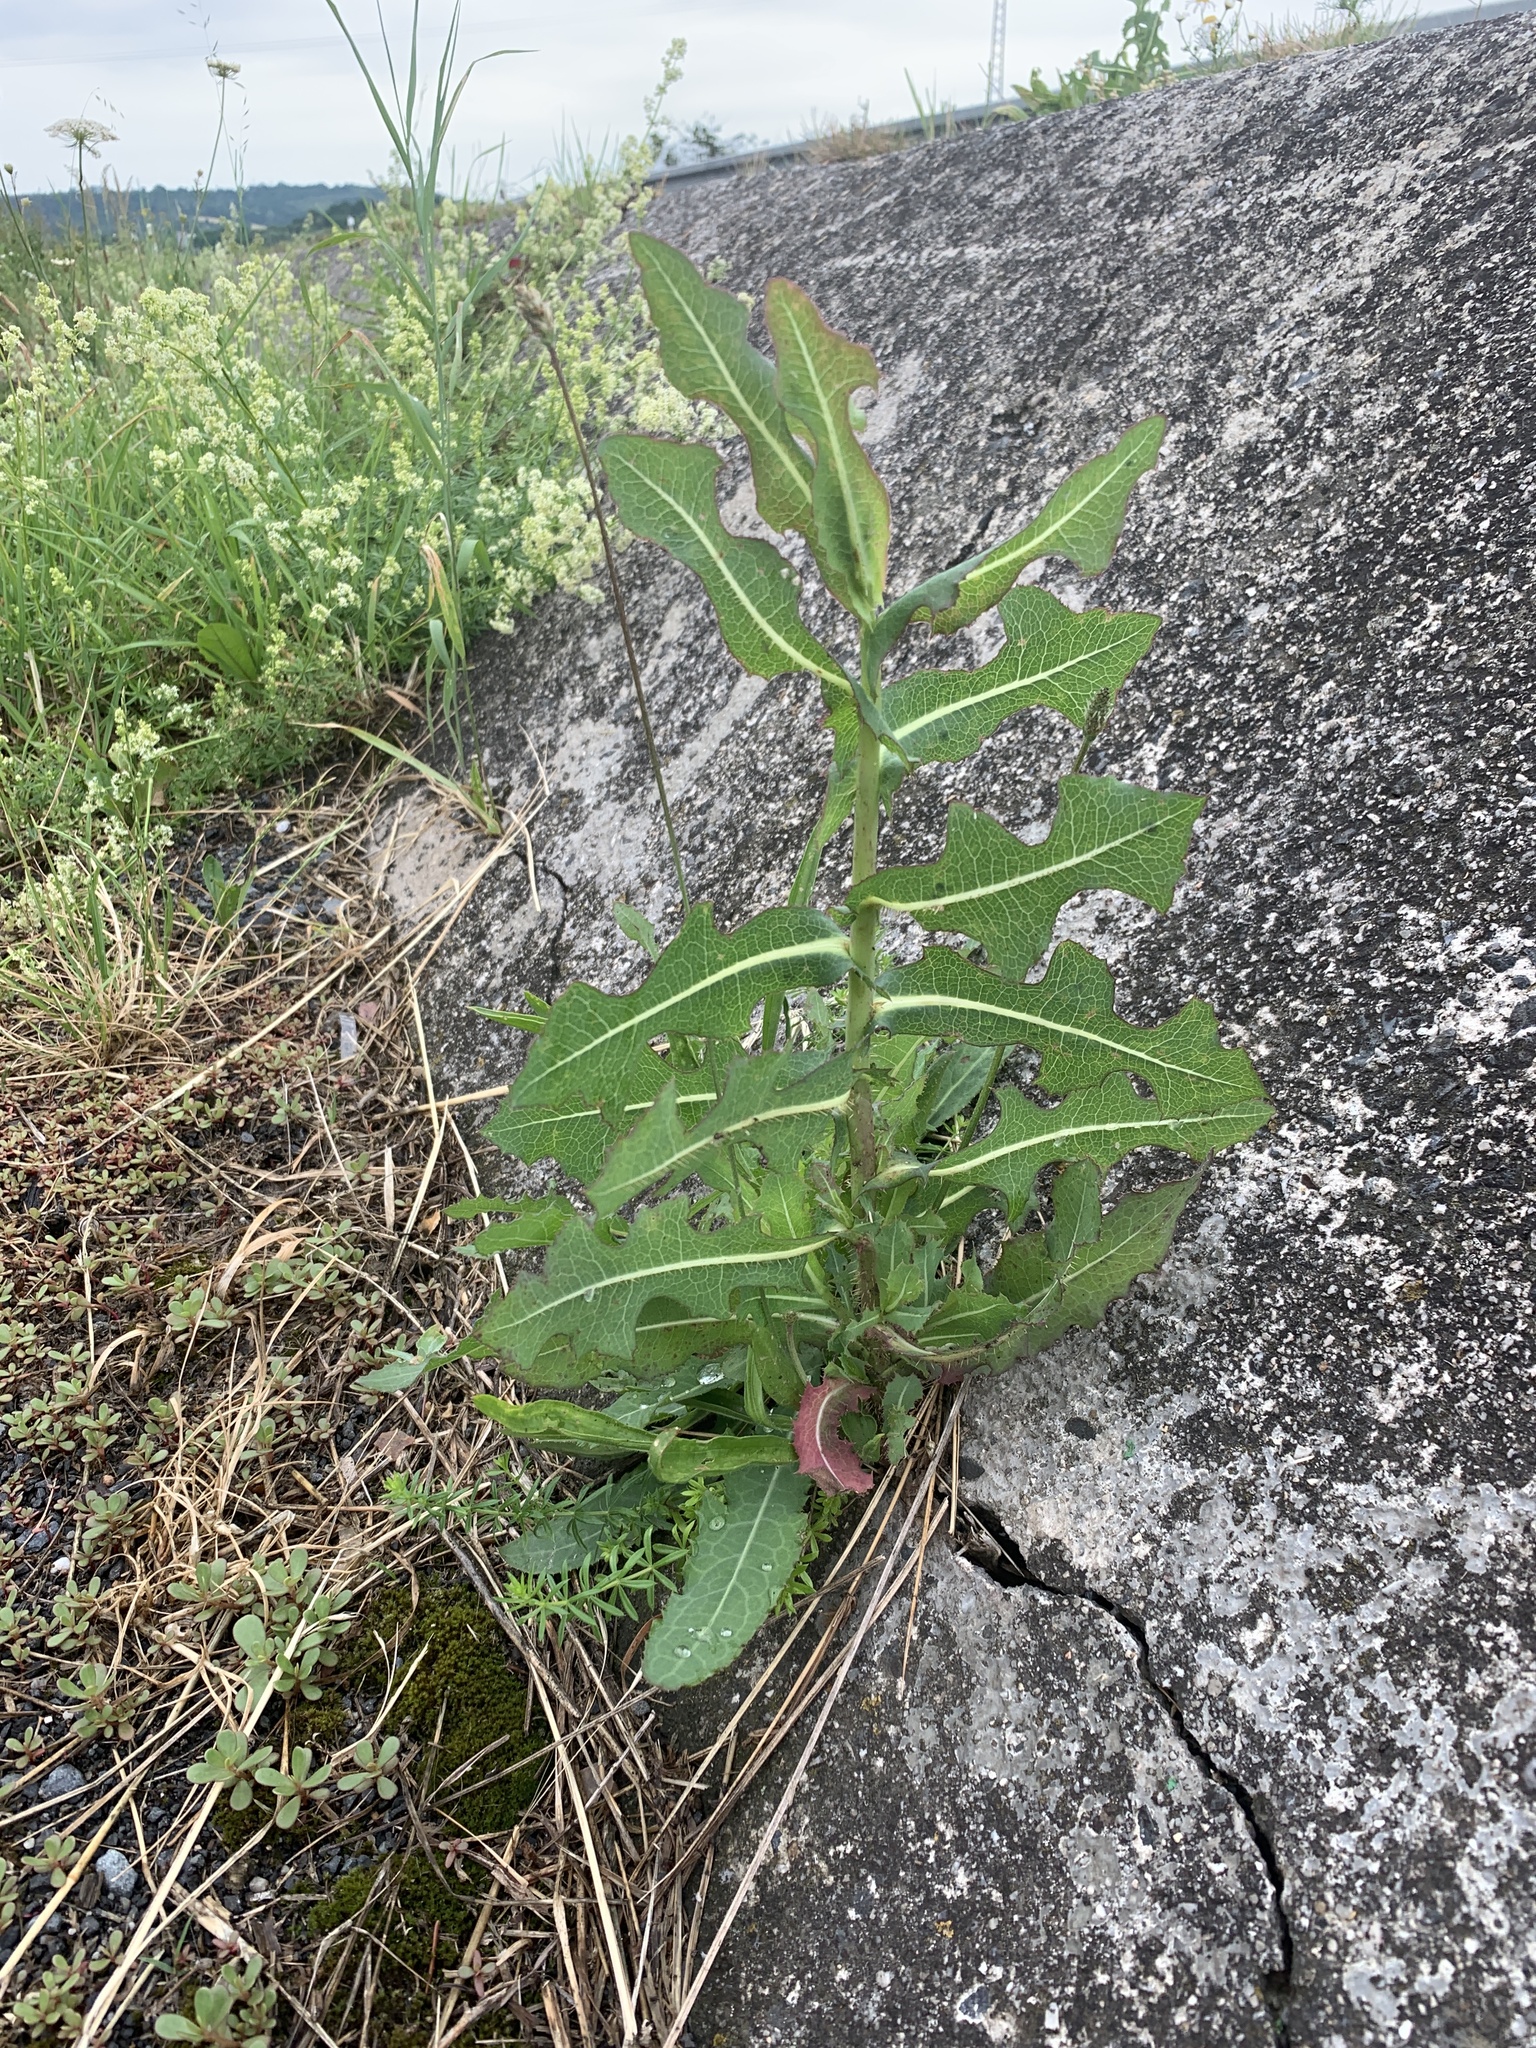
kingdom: Plantae
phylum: Tracheophyta
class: Magnoliopsida
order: Asterales
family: Asteraceae
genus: Lactuca
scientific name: Lactuca serriola
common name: Prickly lettuce
